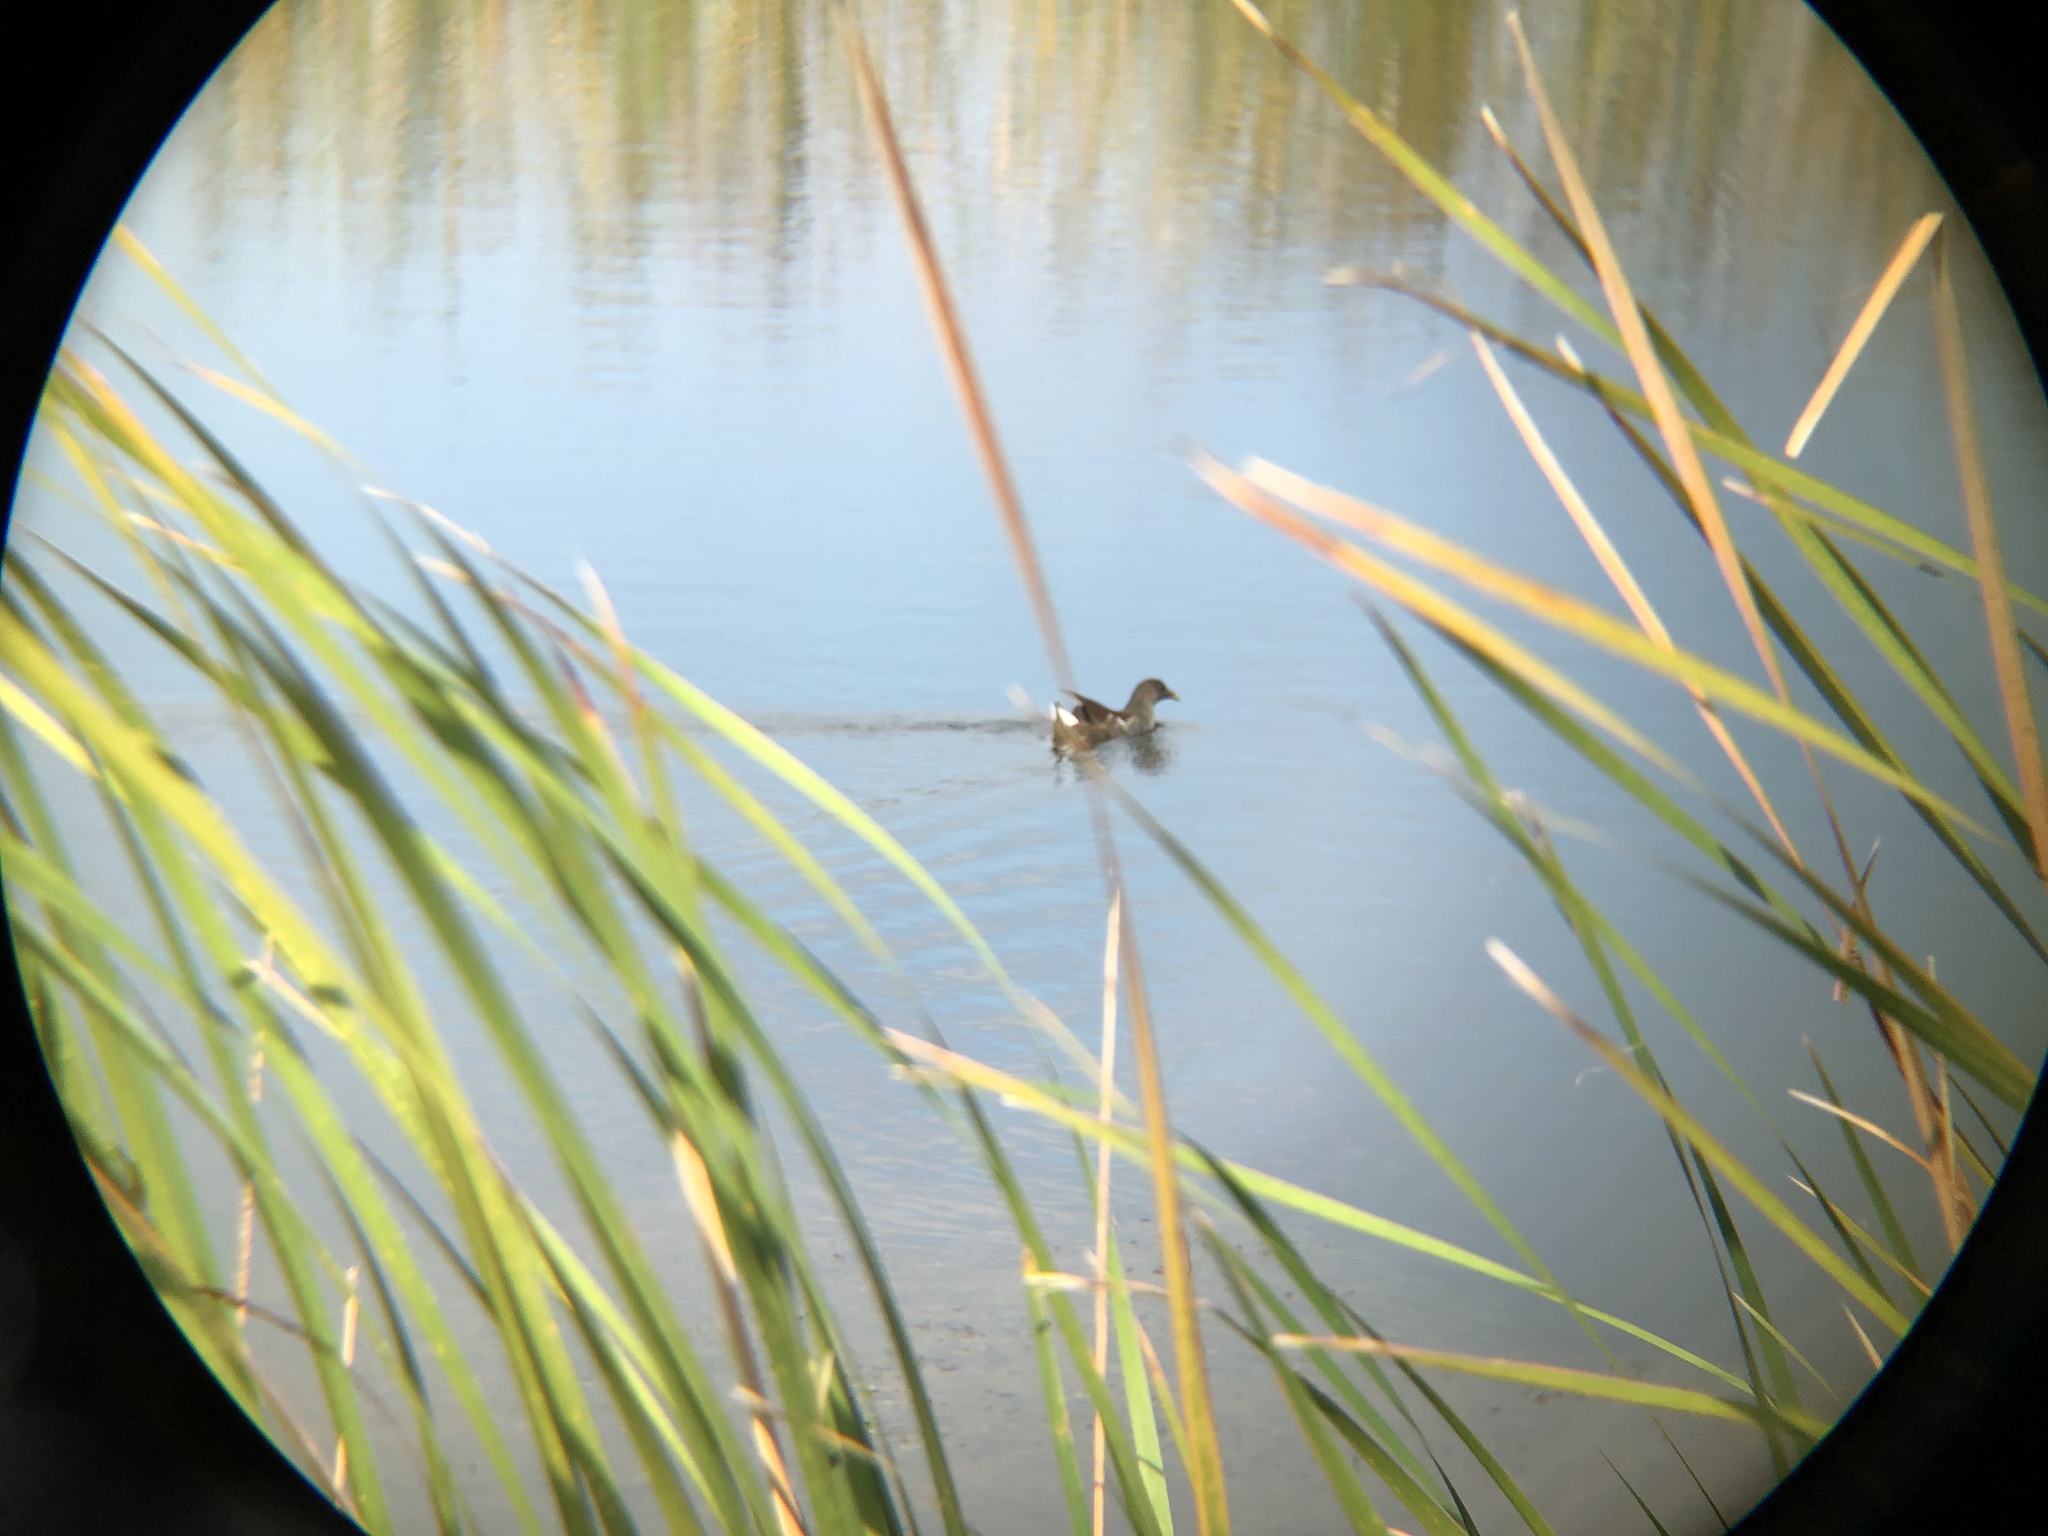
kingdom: Animalia
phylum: Chordata
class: Aves
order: Gruiformes
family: Rallidae
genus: Gallinula
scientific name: Gallinula chloropus
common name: Common moorhen
